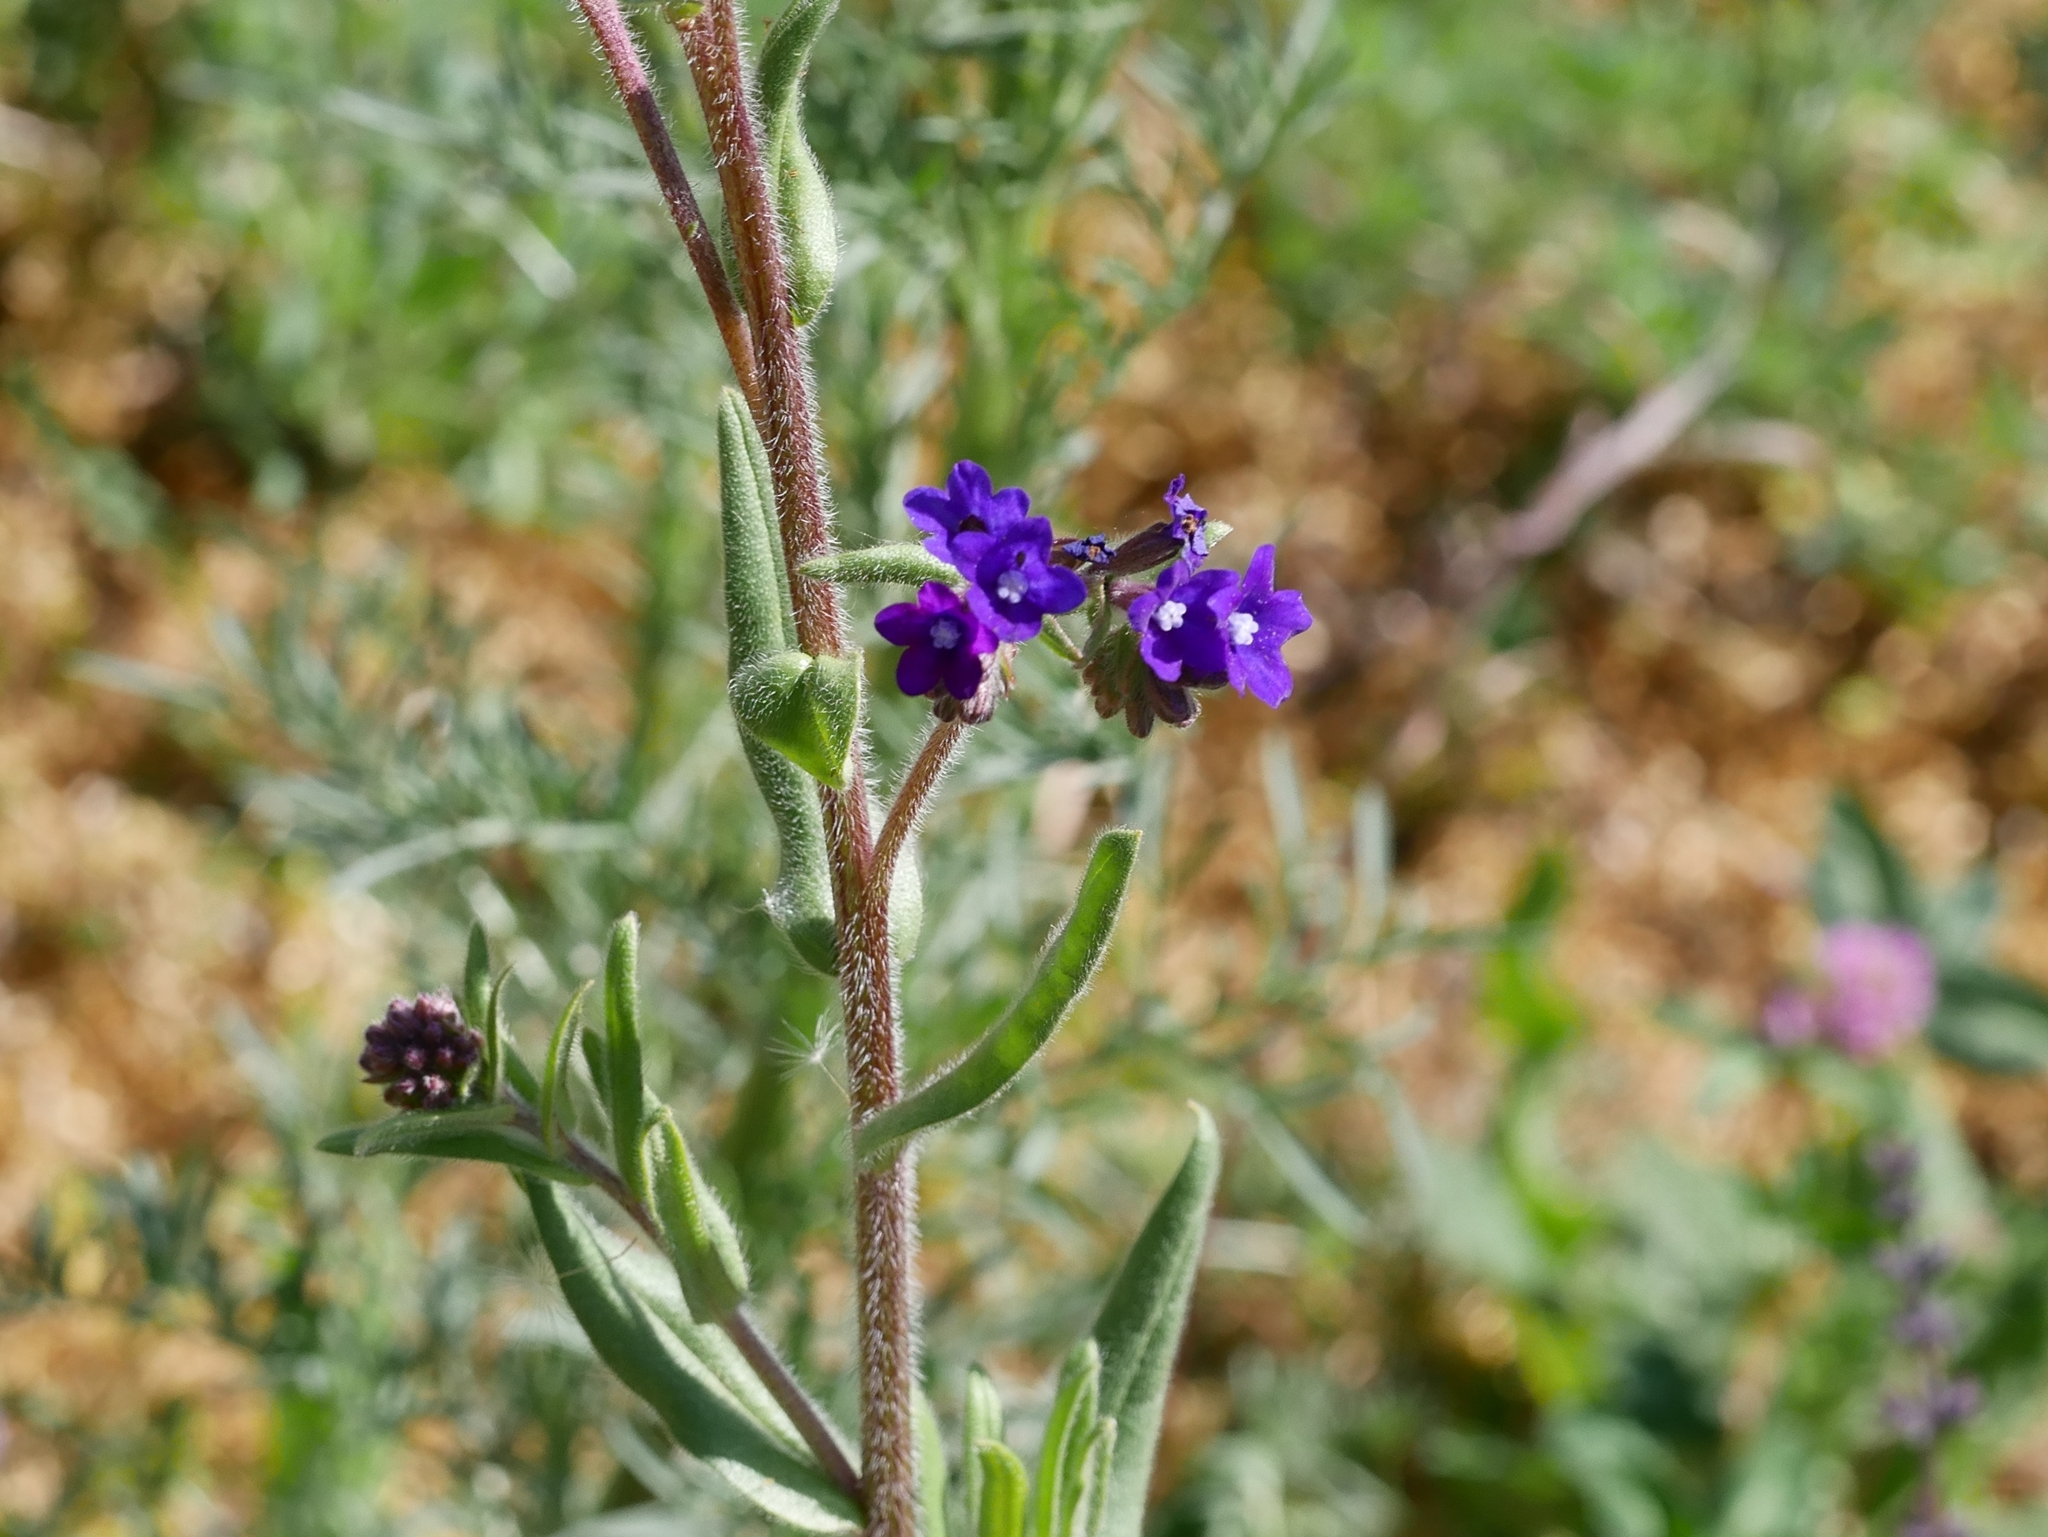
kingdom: Plantae
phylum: Tracheophyta
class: Magnoliopsida
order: Boraginales
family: Boraginaceae
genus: Anchusa
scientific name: Anchusa officinalis
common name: Alkanet
